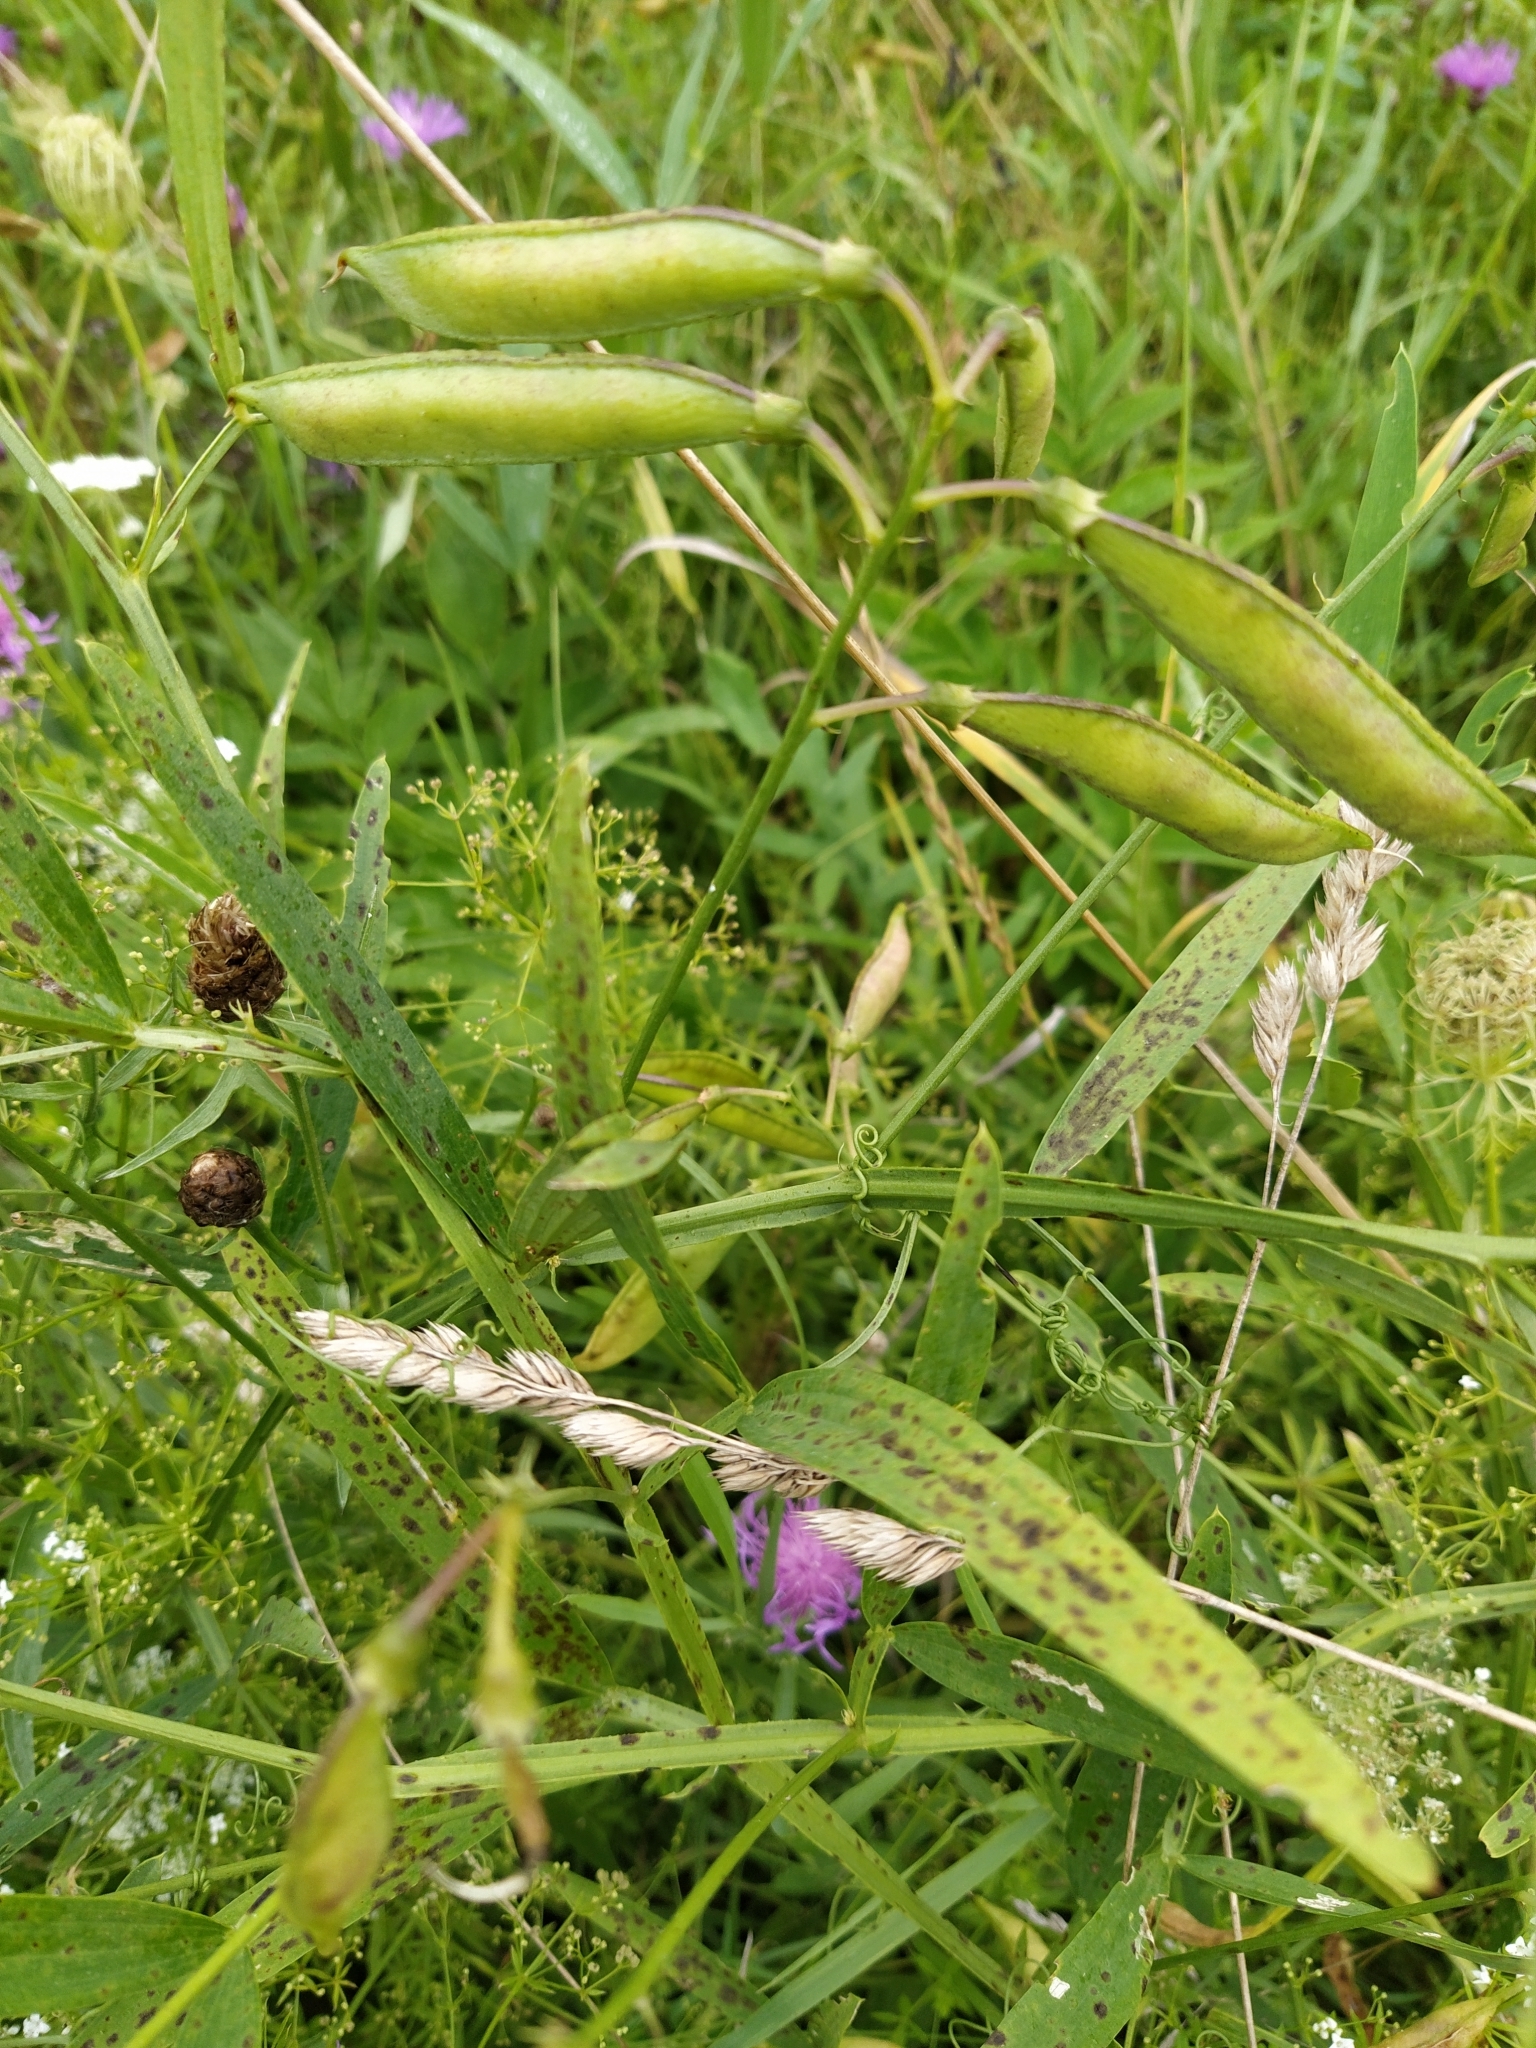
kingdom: Plantae
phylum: Tracheophyta
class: Magnoliopsida
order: Fabales
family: Fabaceae
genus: Lathyrus
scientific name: Lathyrus sylvestris
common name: Flat pea
